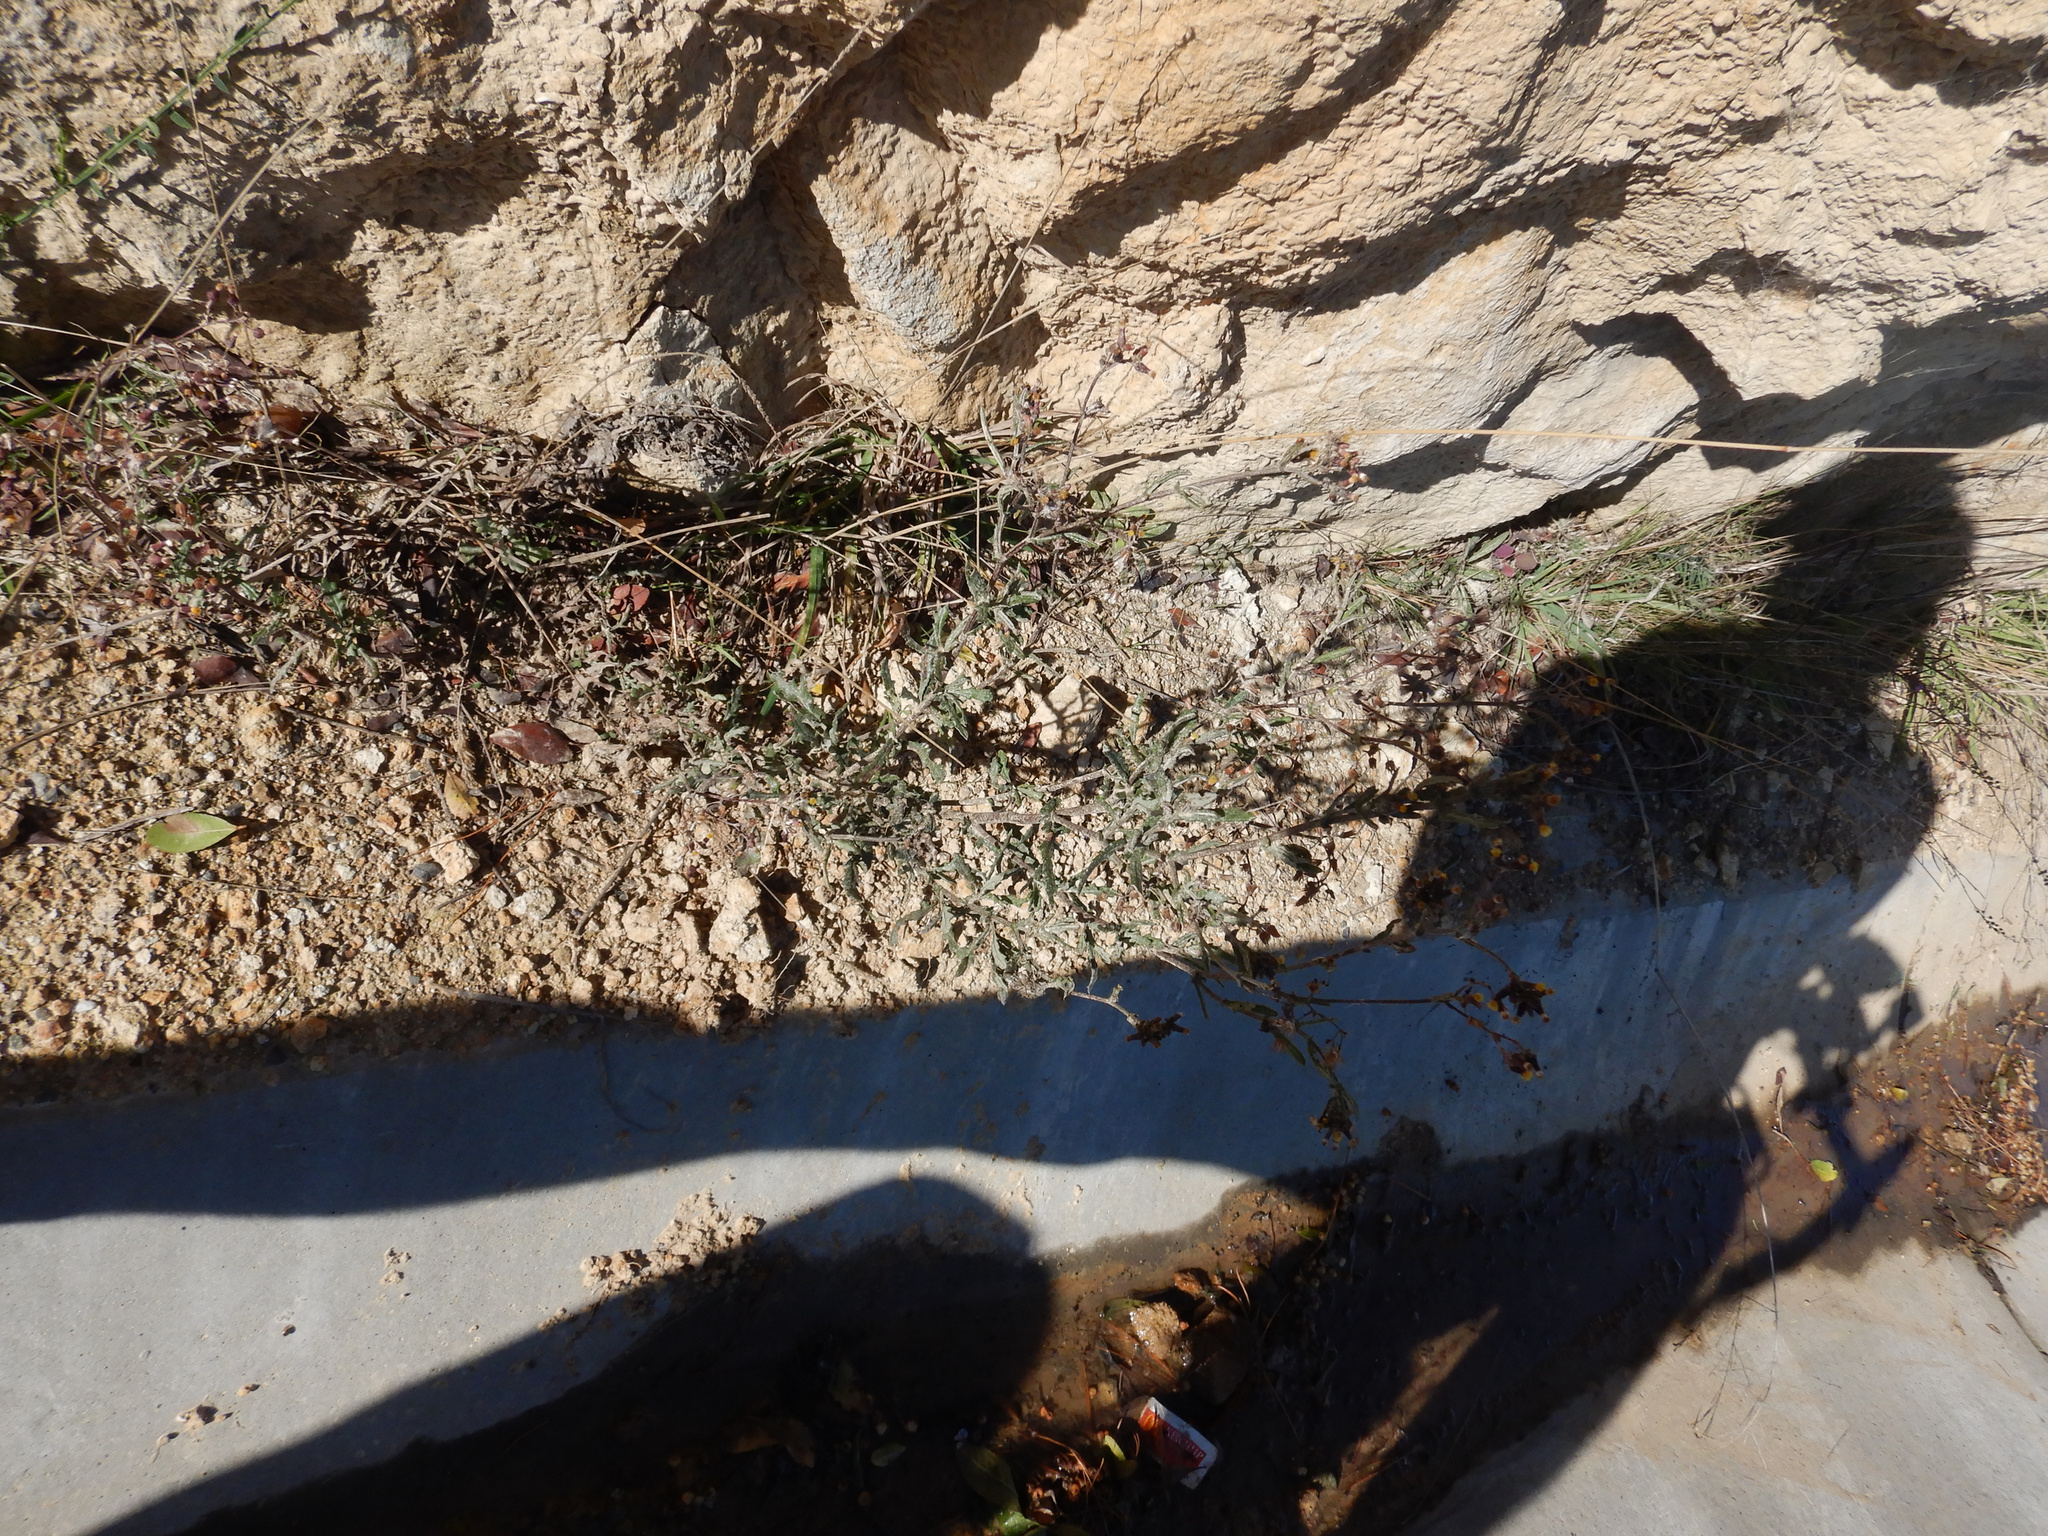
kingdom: Plantae
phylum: Tracheophyta
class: Magnoliopsida
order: Asterales
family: Asteraceae
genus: Senecio
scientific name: Senecio glomeratus
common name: Cutleaf burnweed
